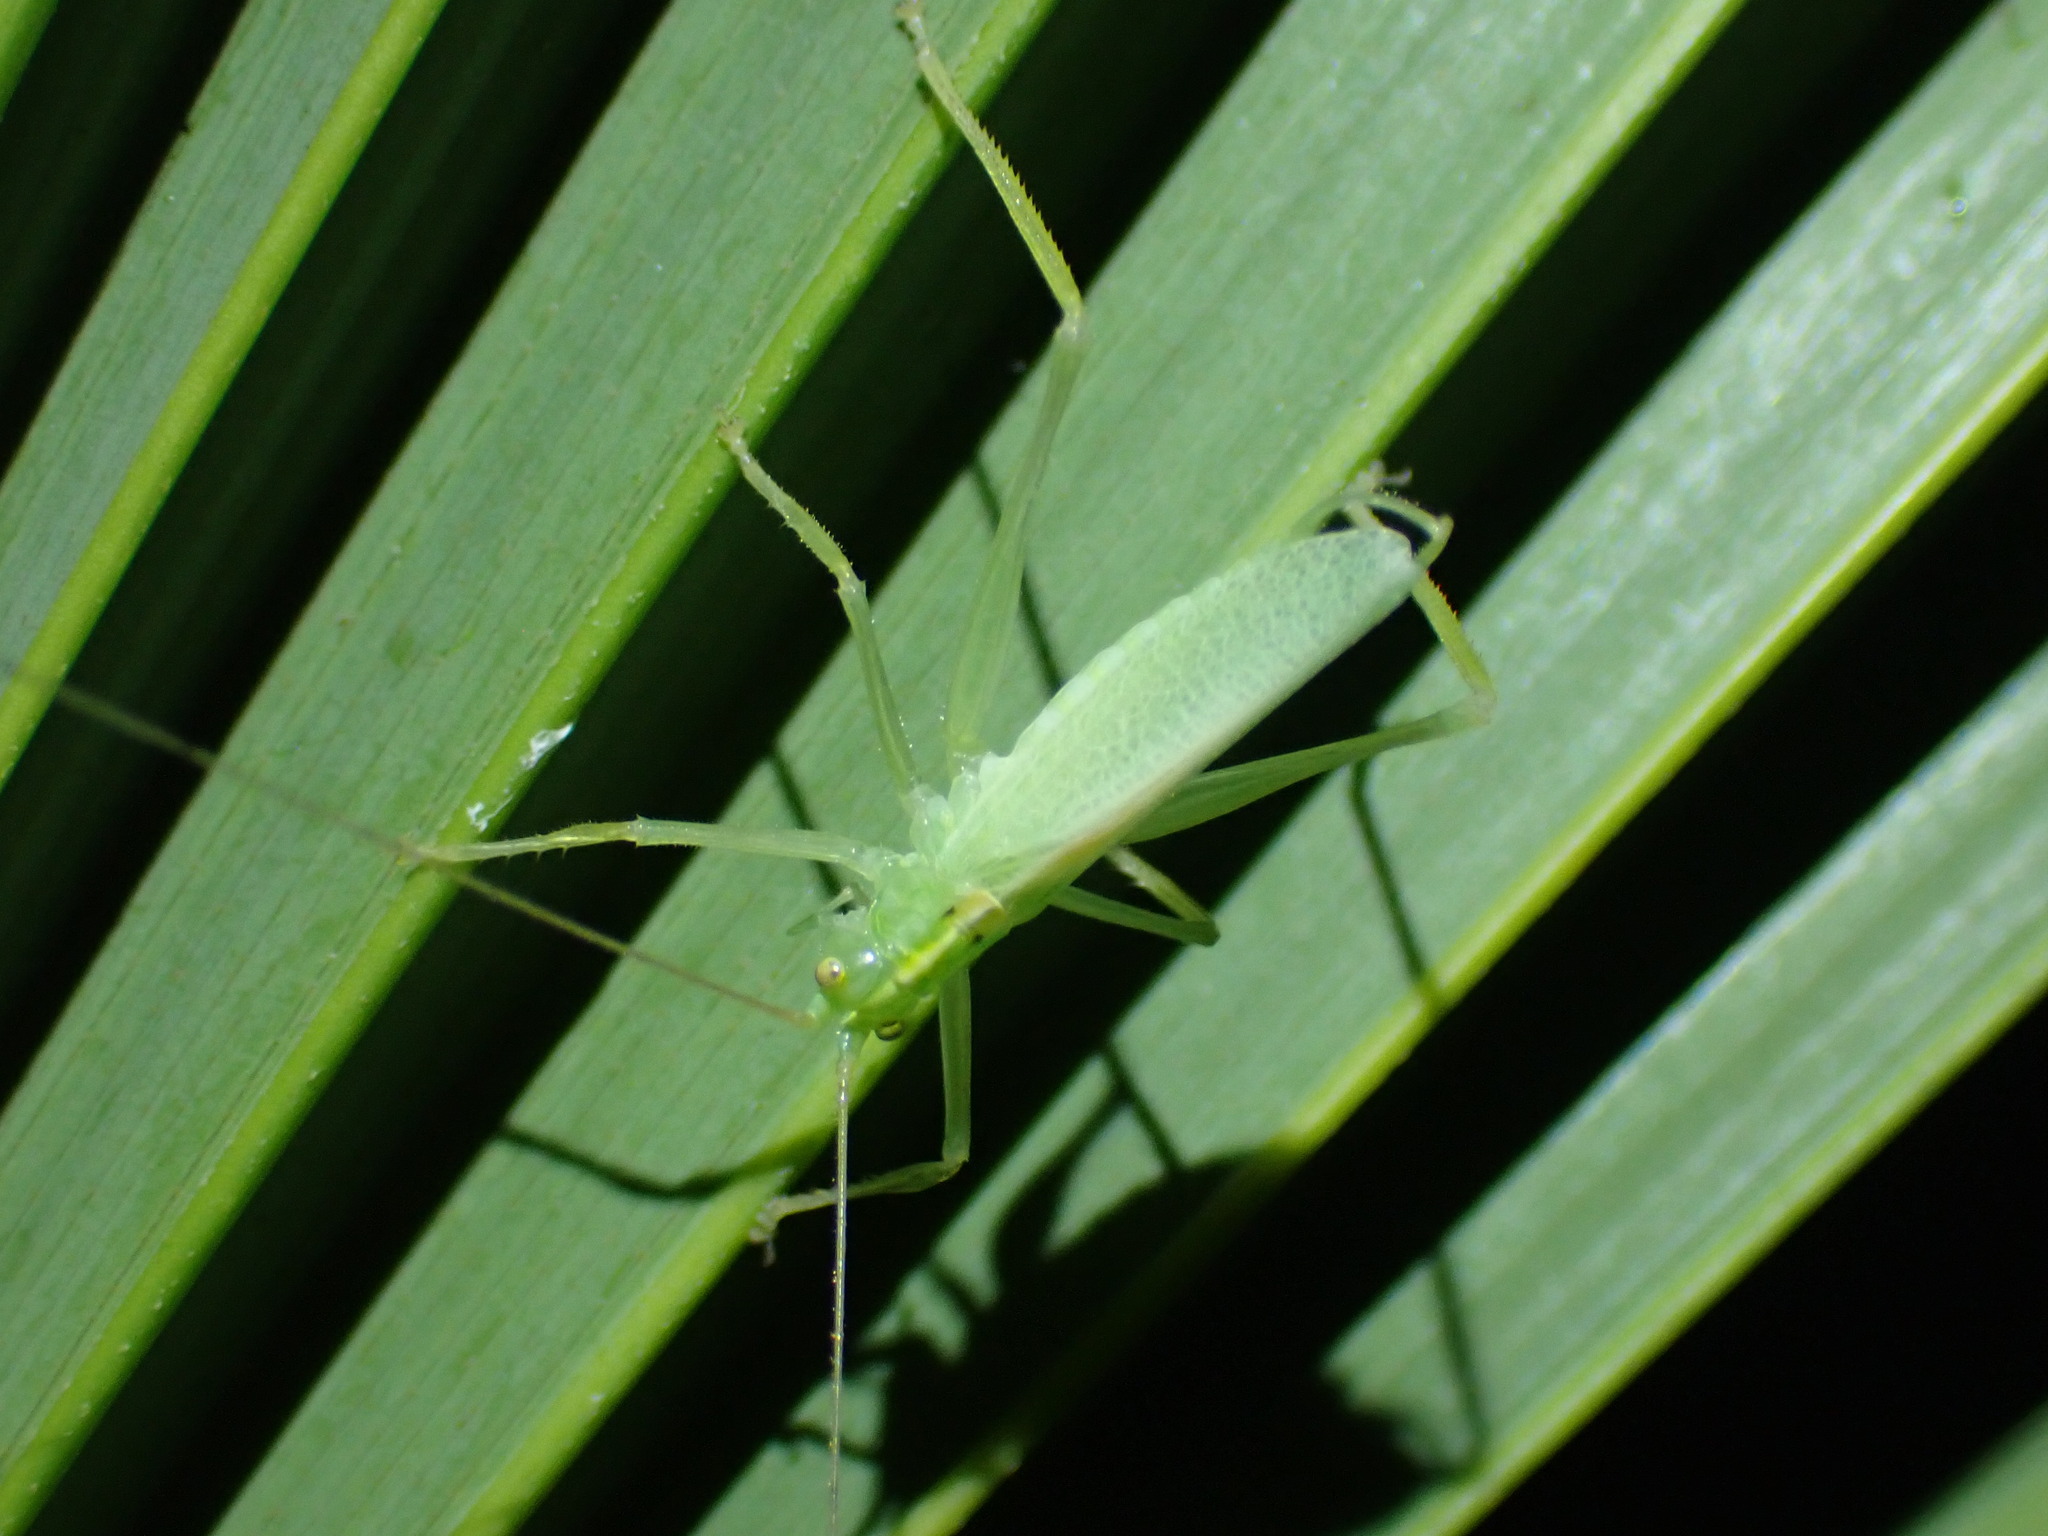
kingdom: Animalia
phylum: Arthropoda
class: Insecta
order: Orthoptera
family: Tettigoniidae
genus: Meconema
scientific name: Meconema thalassinum
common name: Oak bush-cricket
